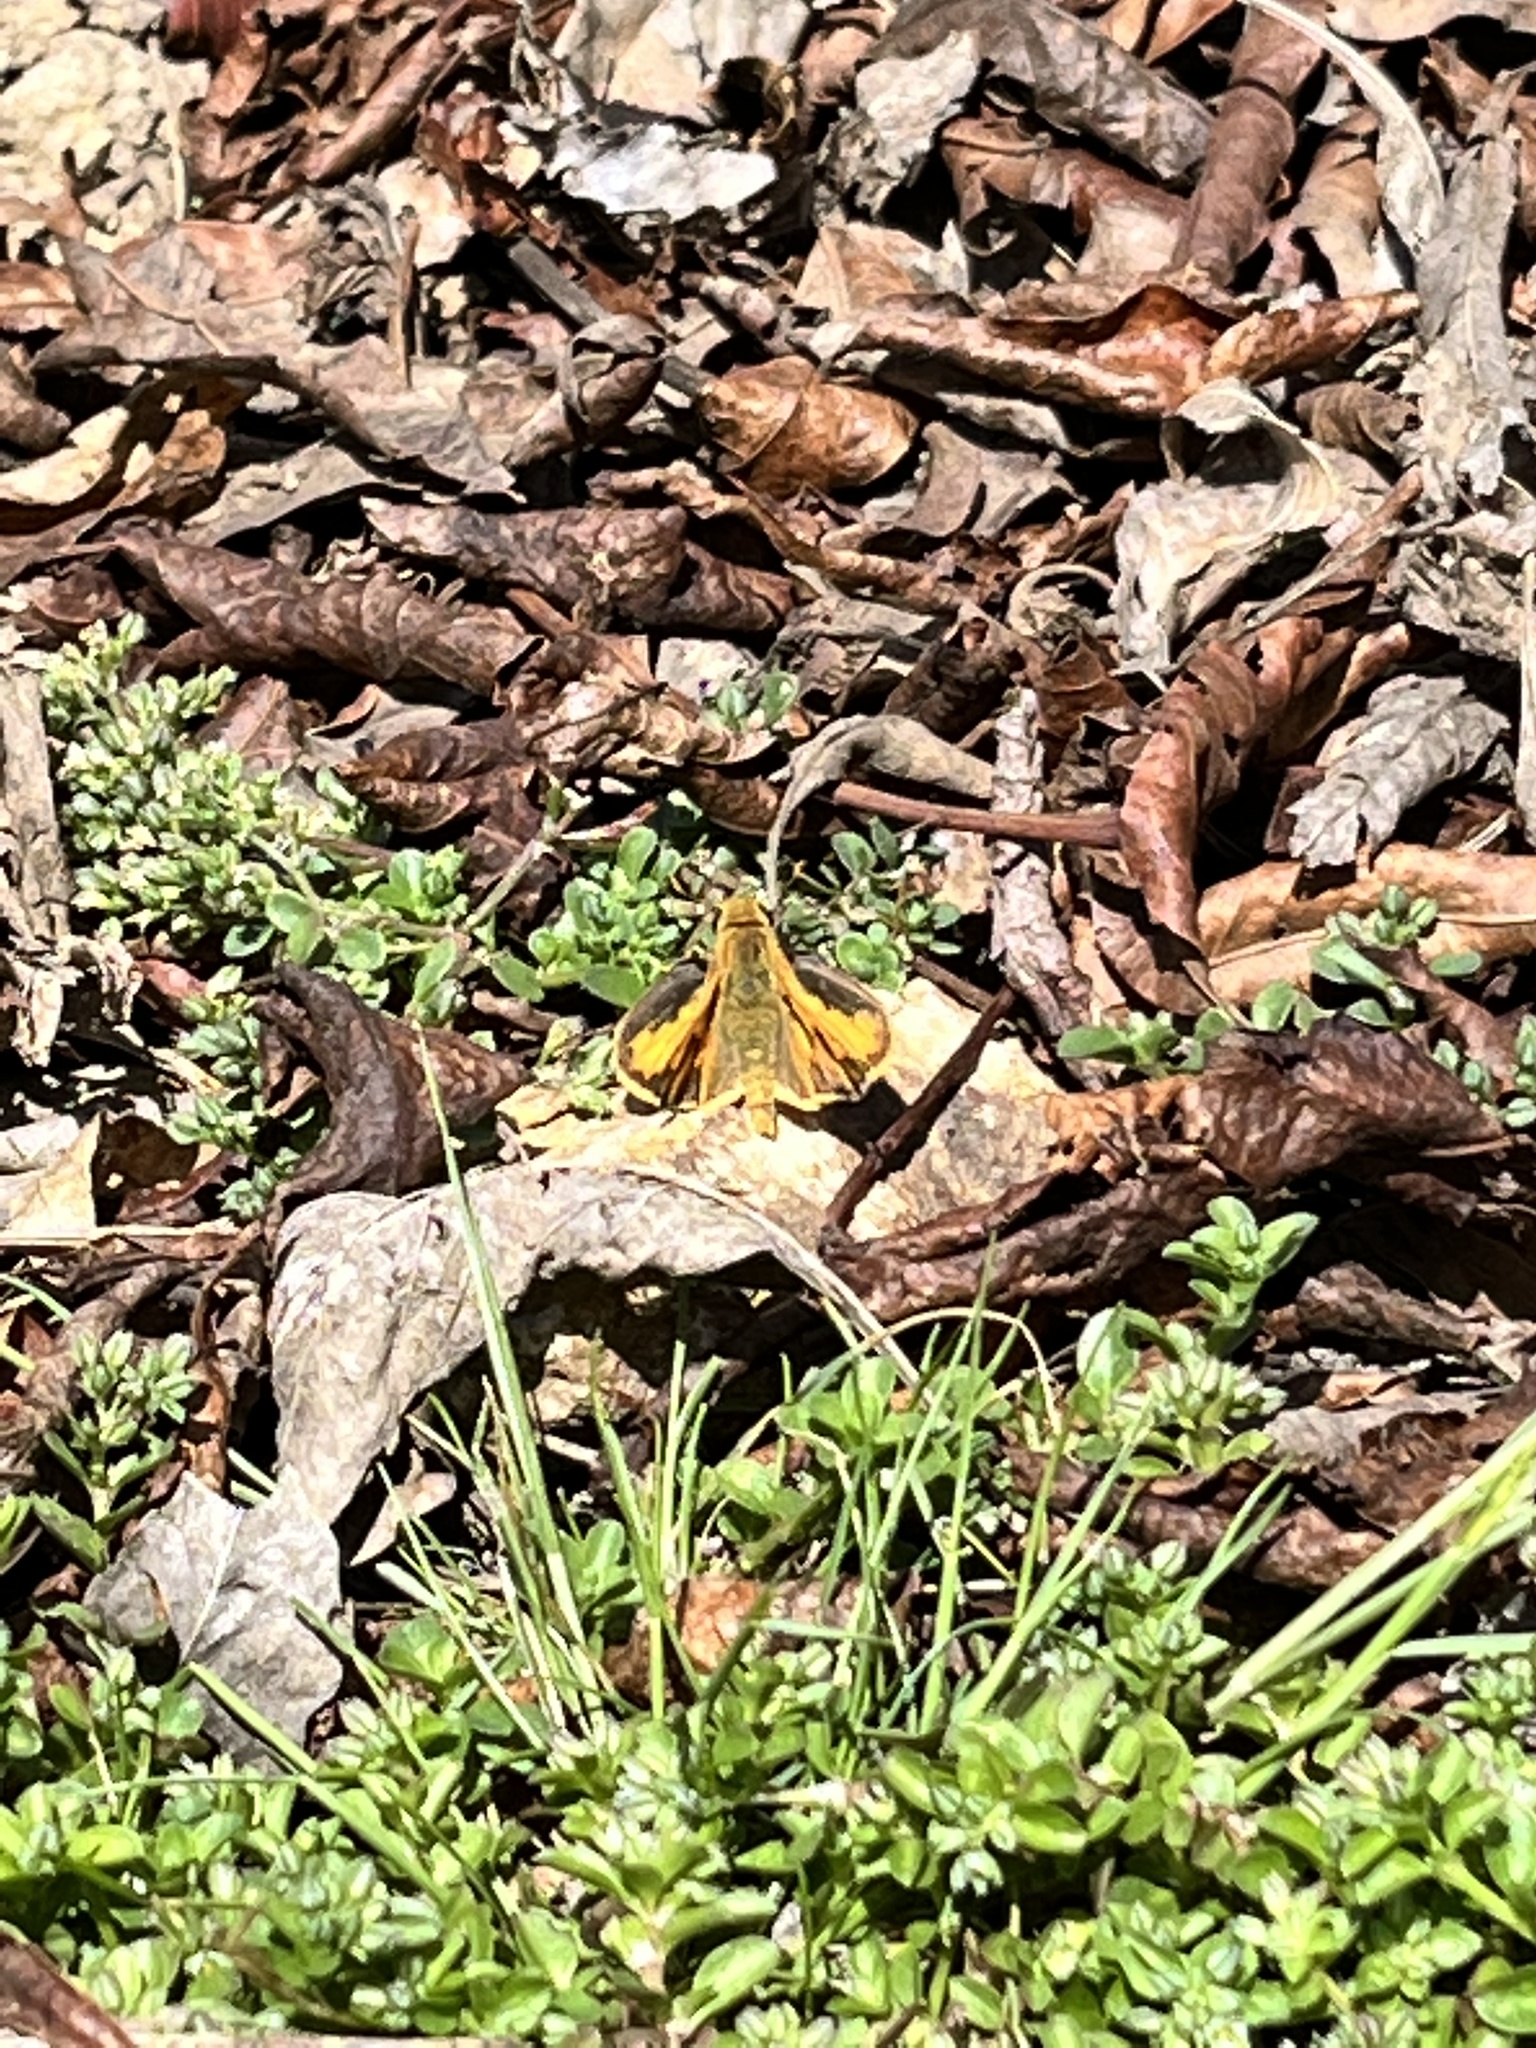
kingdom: Animalia
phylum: Arthropoda
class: Insecta
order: Lepidoptera
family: Hesperiidae
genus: Hylephila
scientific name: Hylephila phyleus
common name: Fiery skipper
